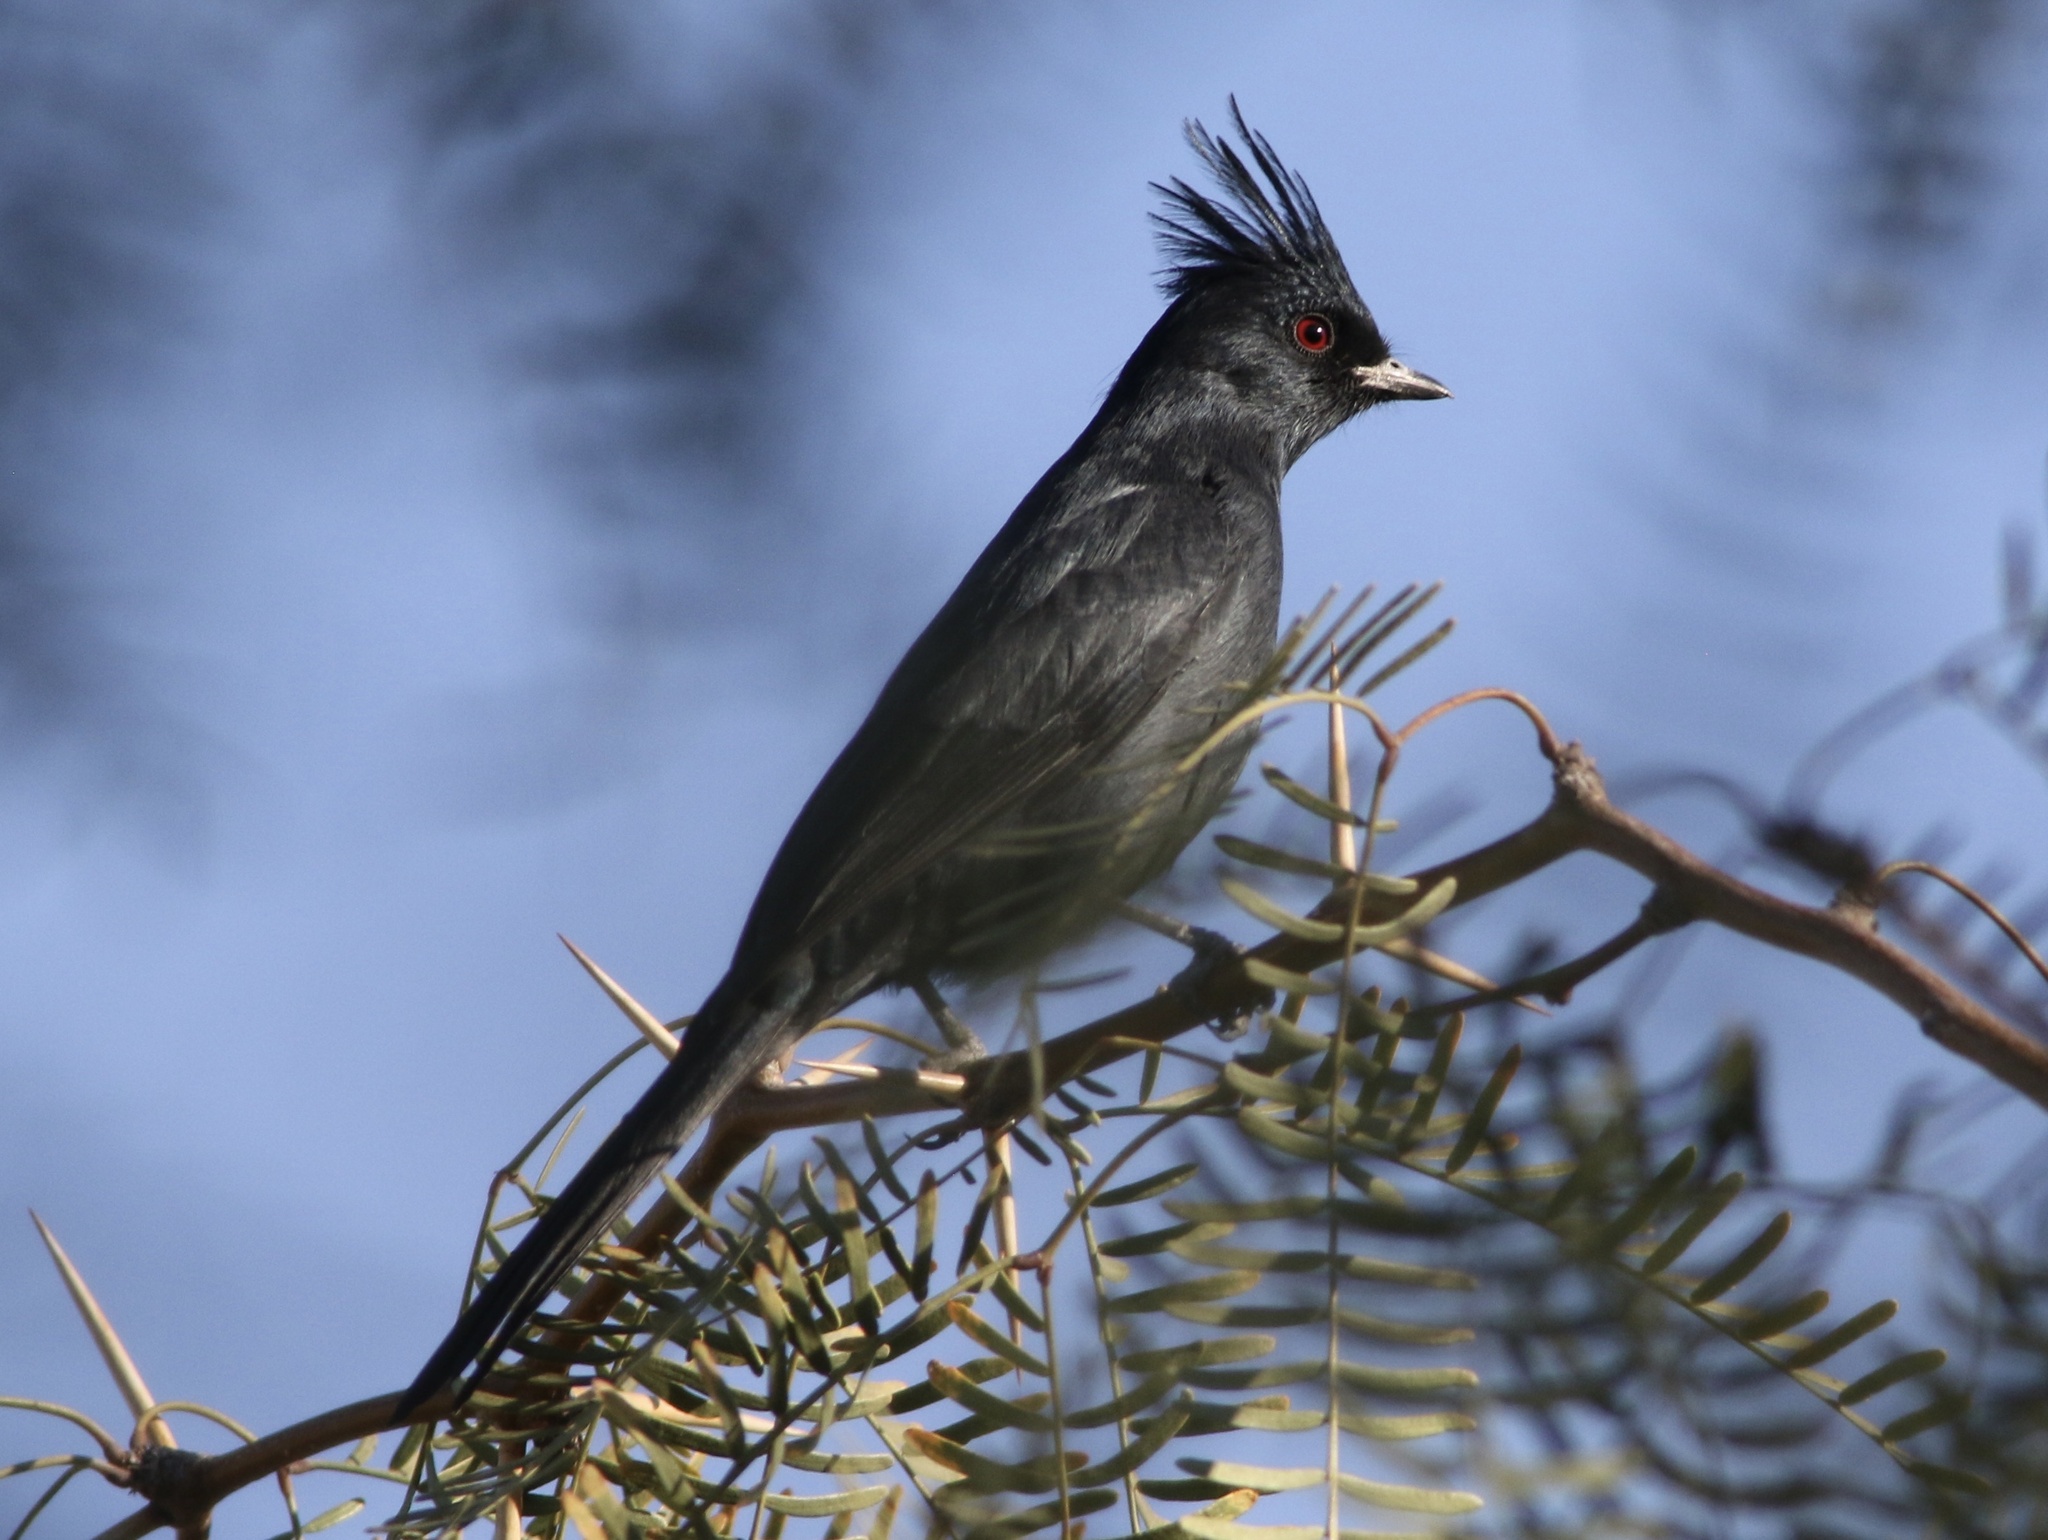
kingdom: Animalia
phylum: Chordata
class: Aves
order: Passeriformes
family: Ptilogonatidae
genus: Phainopepla
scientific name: Phainopepla nitens
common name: Phainopepla
